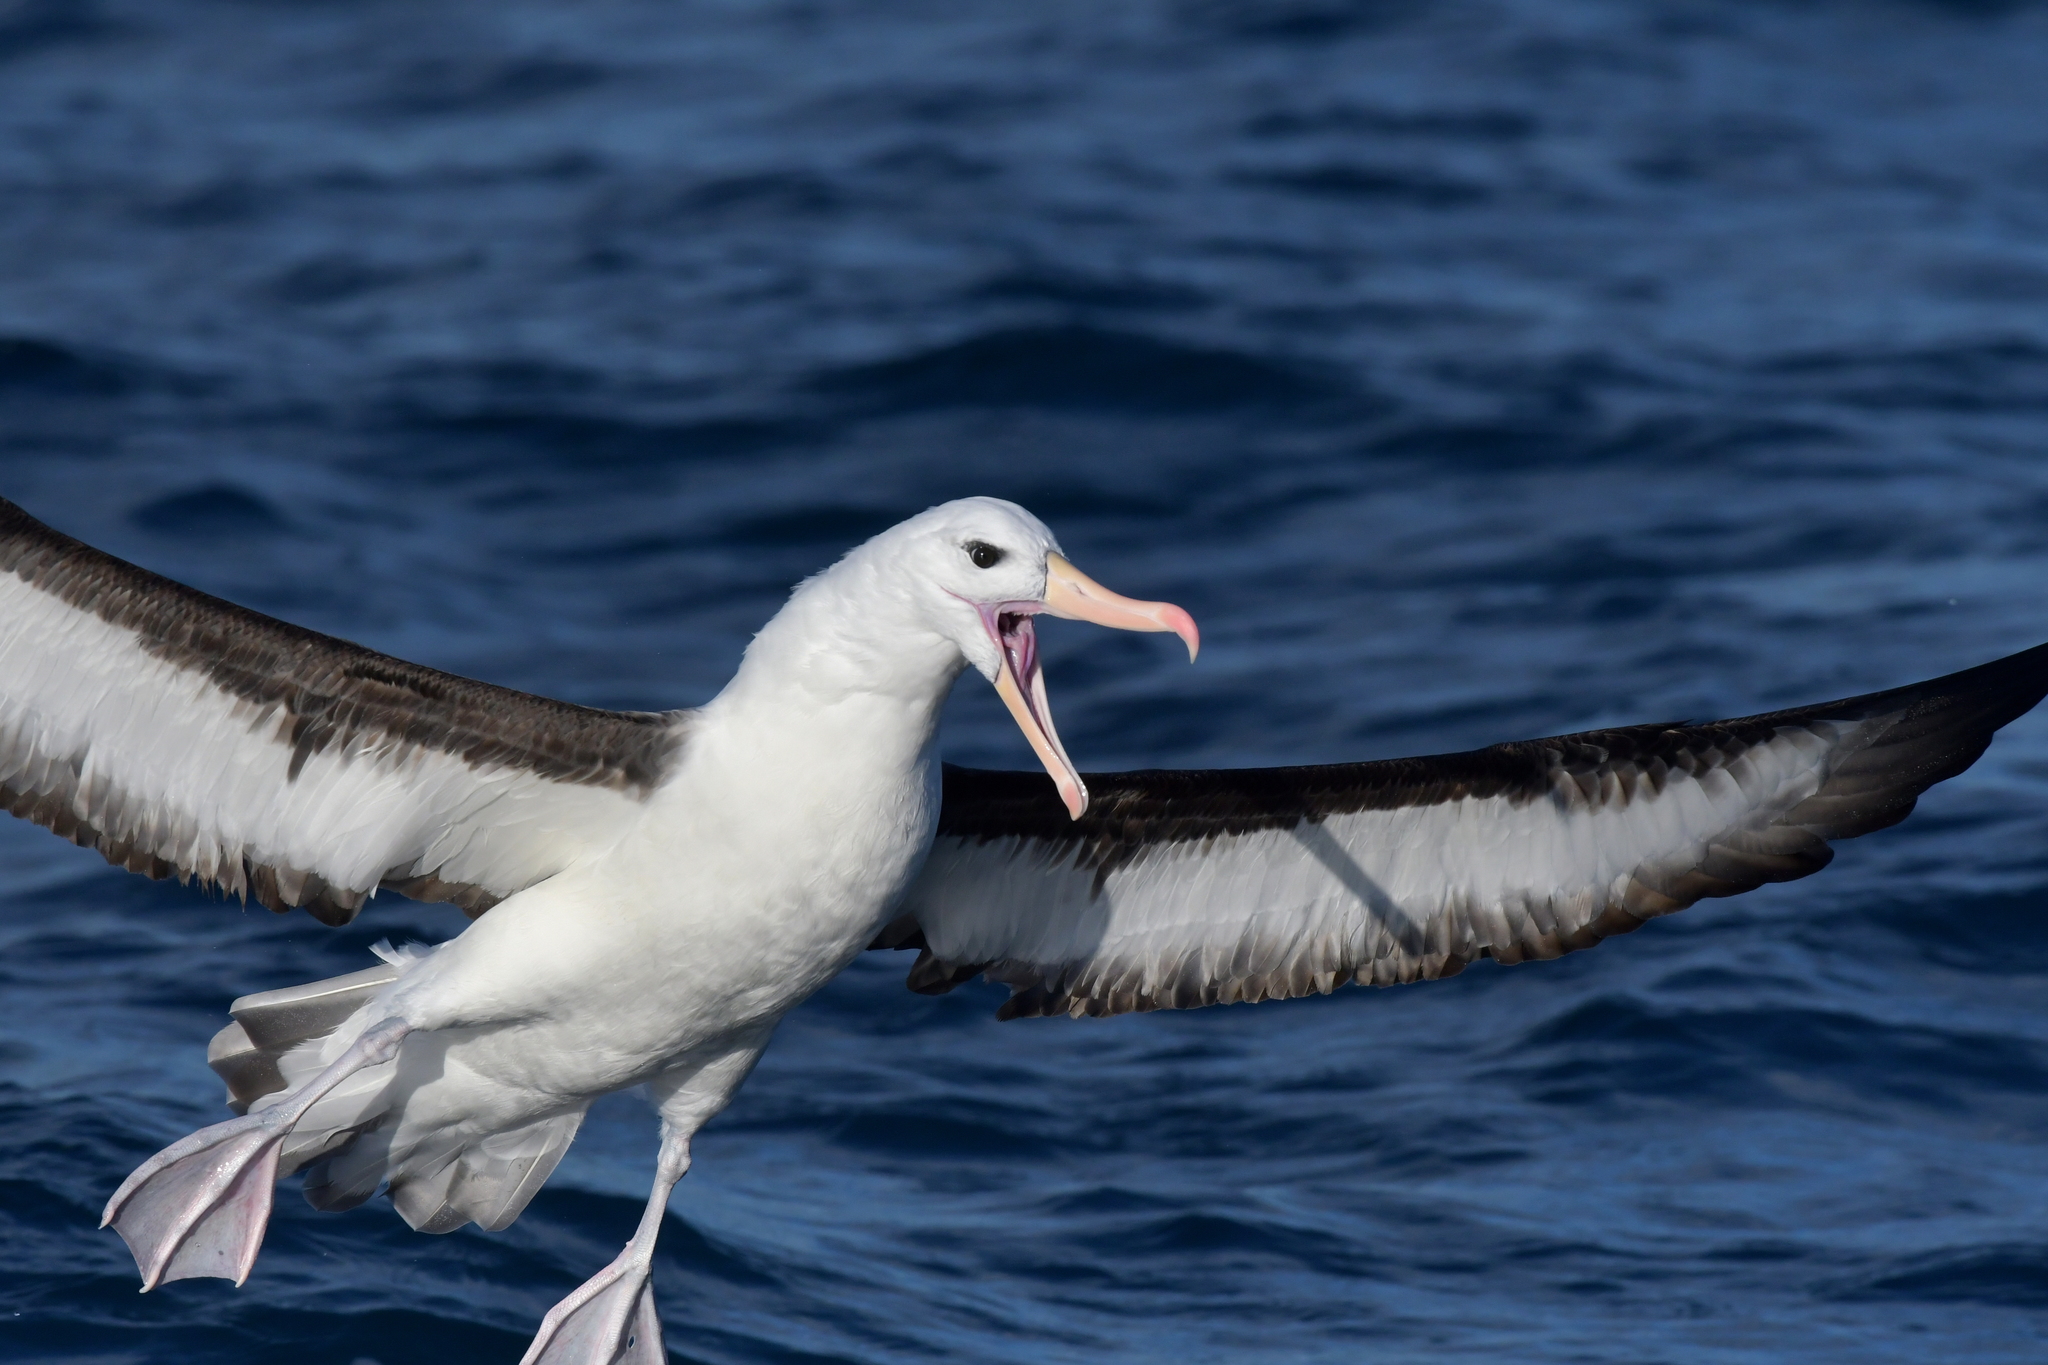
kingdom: Animalia
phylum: Chordata
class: Aves
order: Procellariiformes
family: Diomedeidae
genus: Thalassarche
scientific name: Thalassarche melanophris
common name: Black-browed albatross
